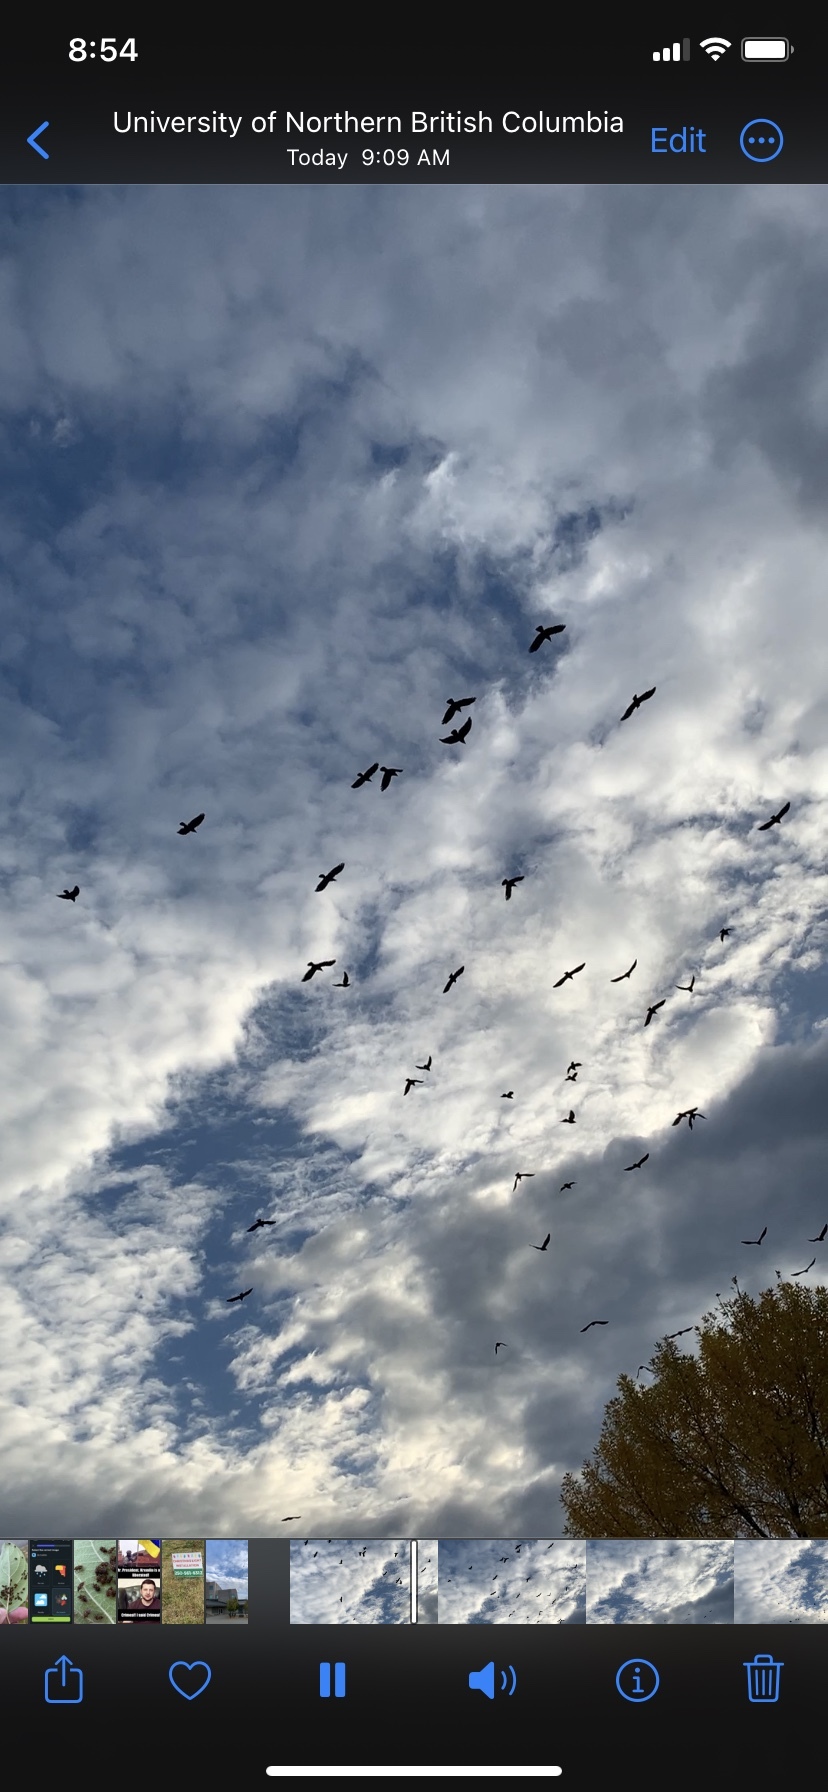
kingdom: Animalia
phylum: Chordata
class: Aves
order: Passeriformes
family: Corvidae
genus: Corvus
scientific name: Corvus brachyrhynchos
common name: American crow
